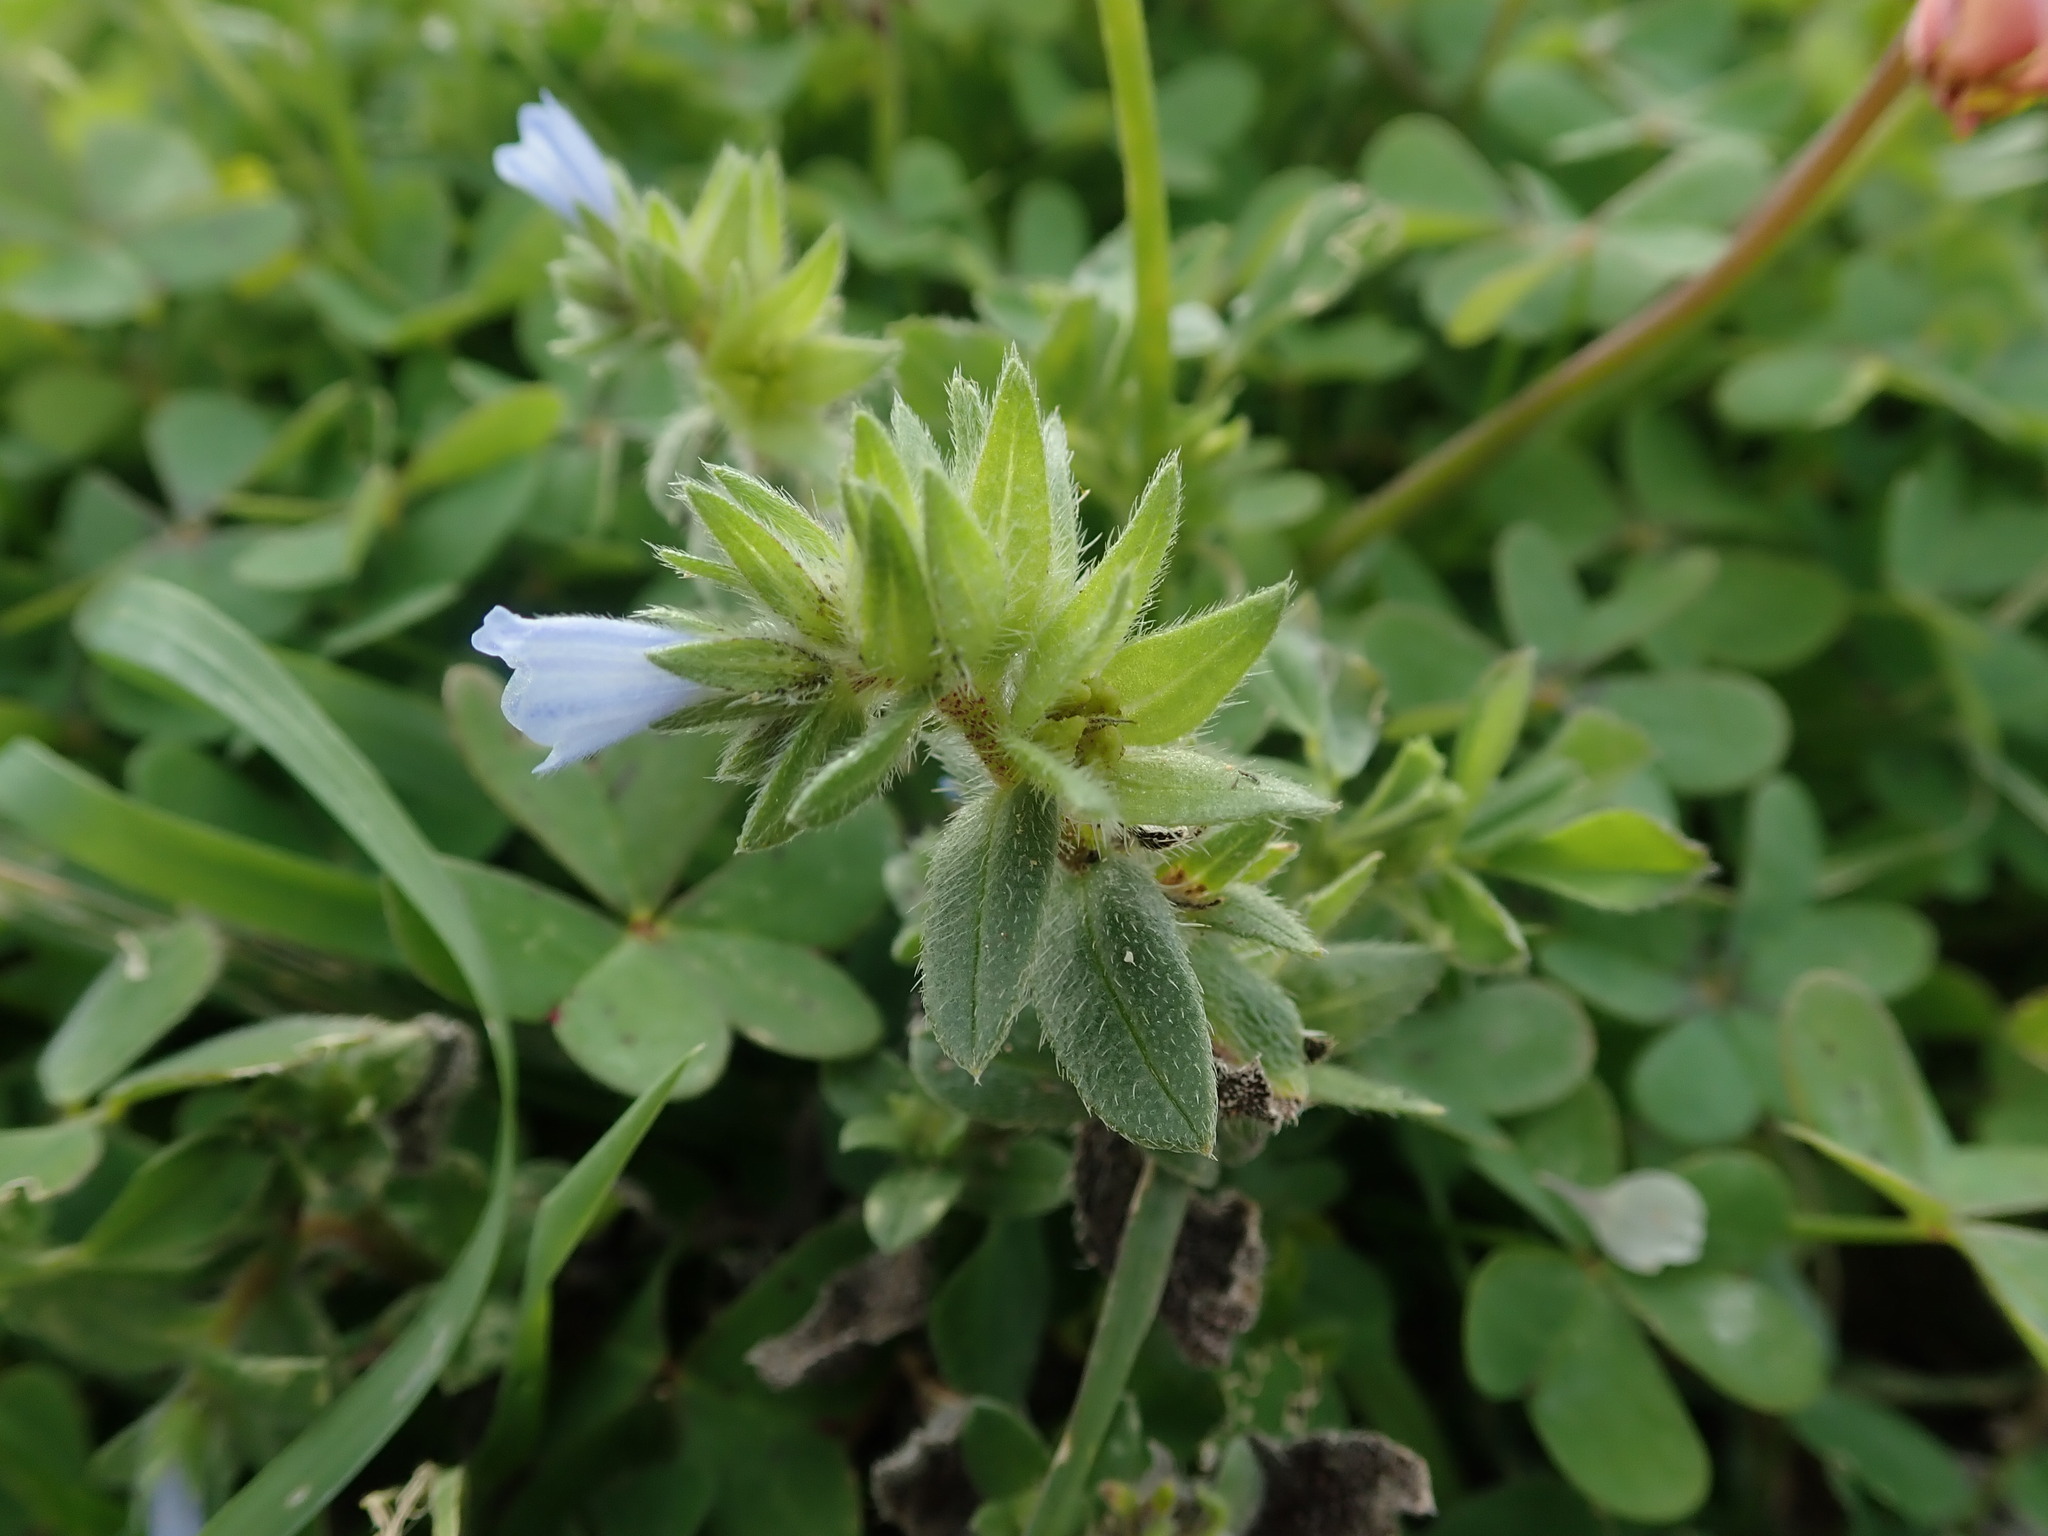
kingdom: Plantae
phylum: Tracheophyta
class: Magnoliopsida
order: Boraginales
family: Boraginaceae
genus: Echium
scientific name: Echium parviflorum
